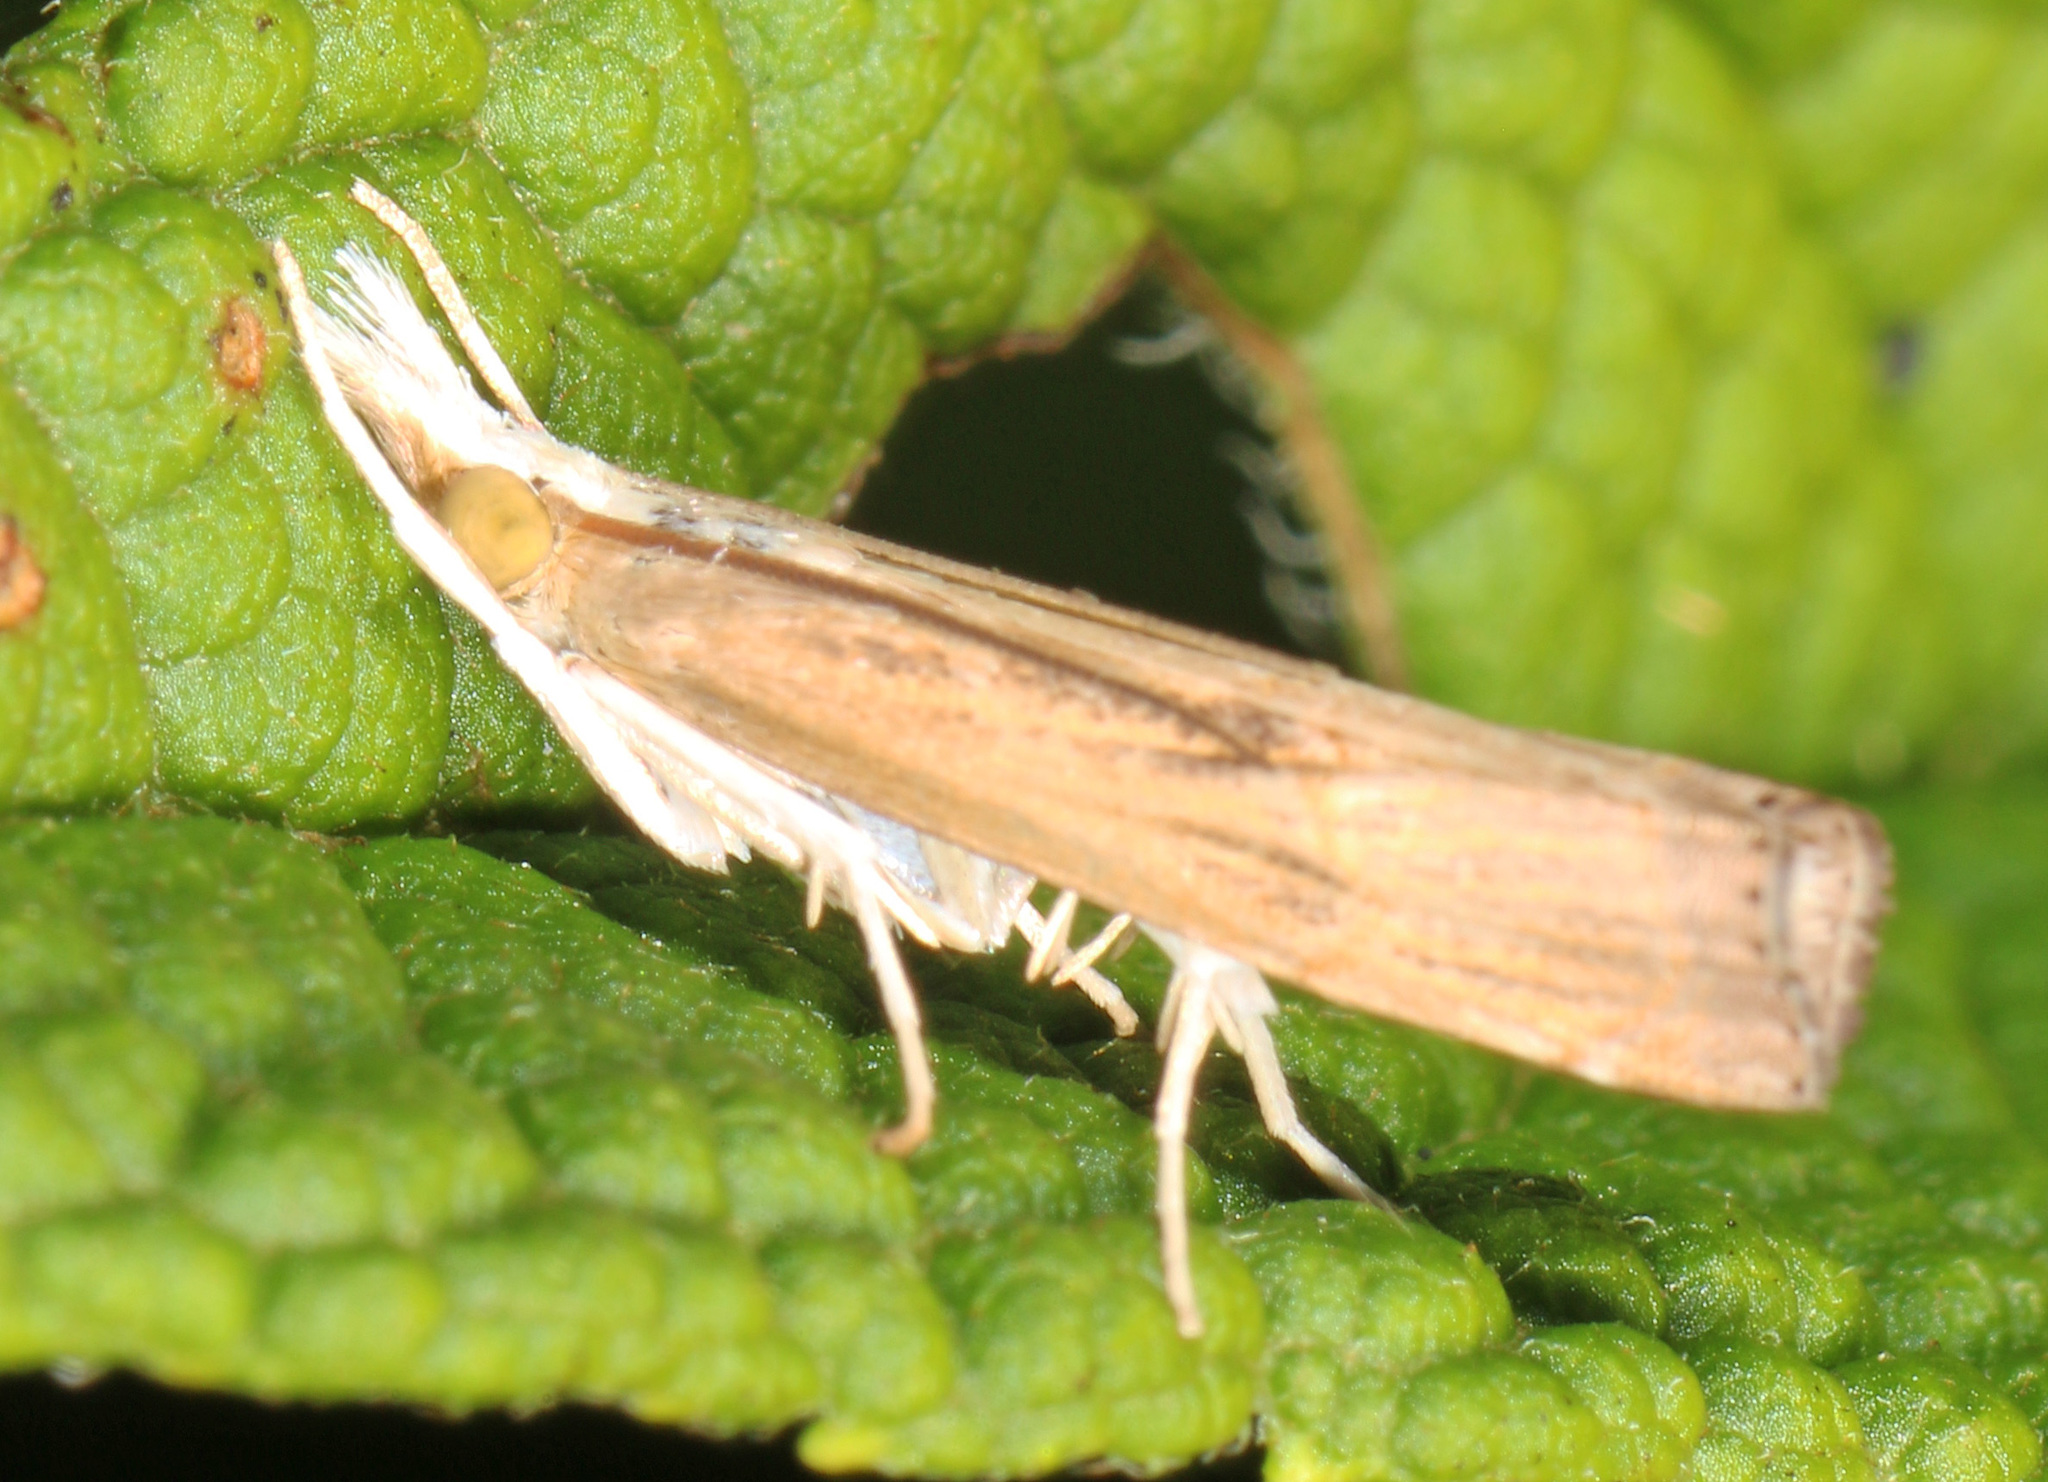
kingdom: Animalia
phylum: Arthropoda
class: Insecta
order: Lepidoptera
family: Crambidae
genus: Parapediasia
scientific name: Parapediasia teterellus
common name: Bluegrass webworm moth
